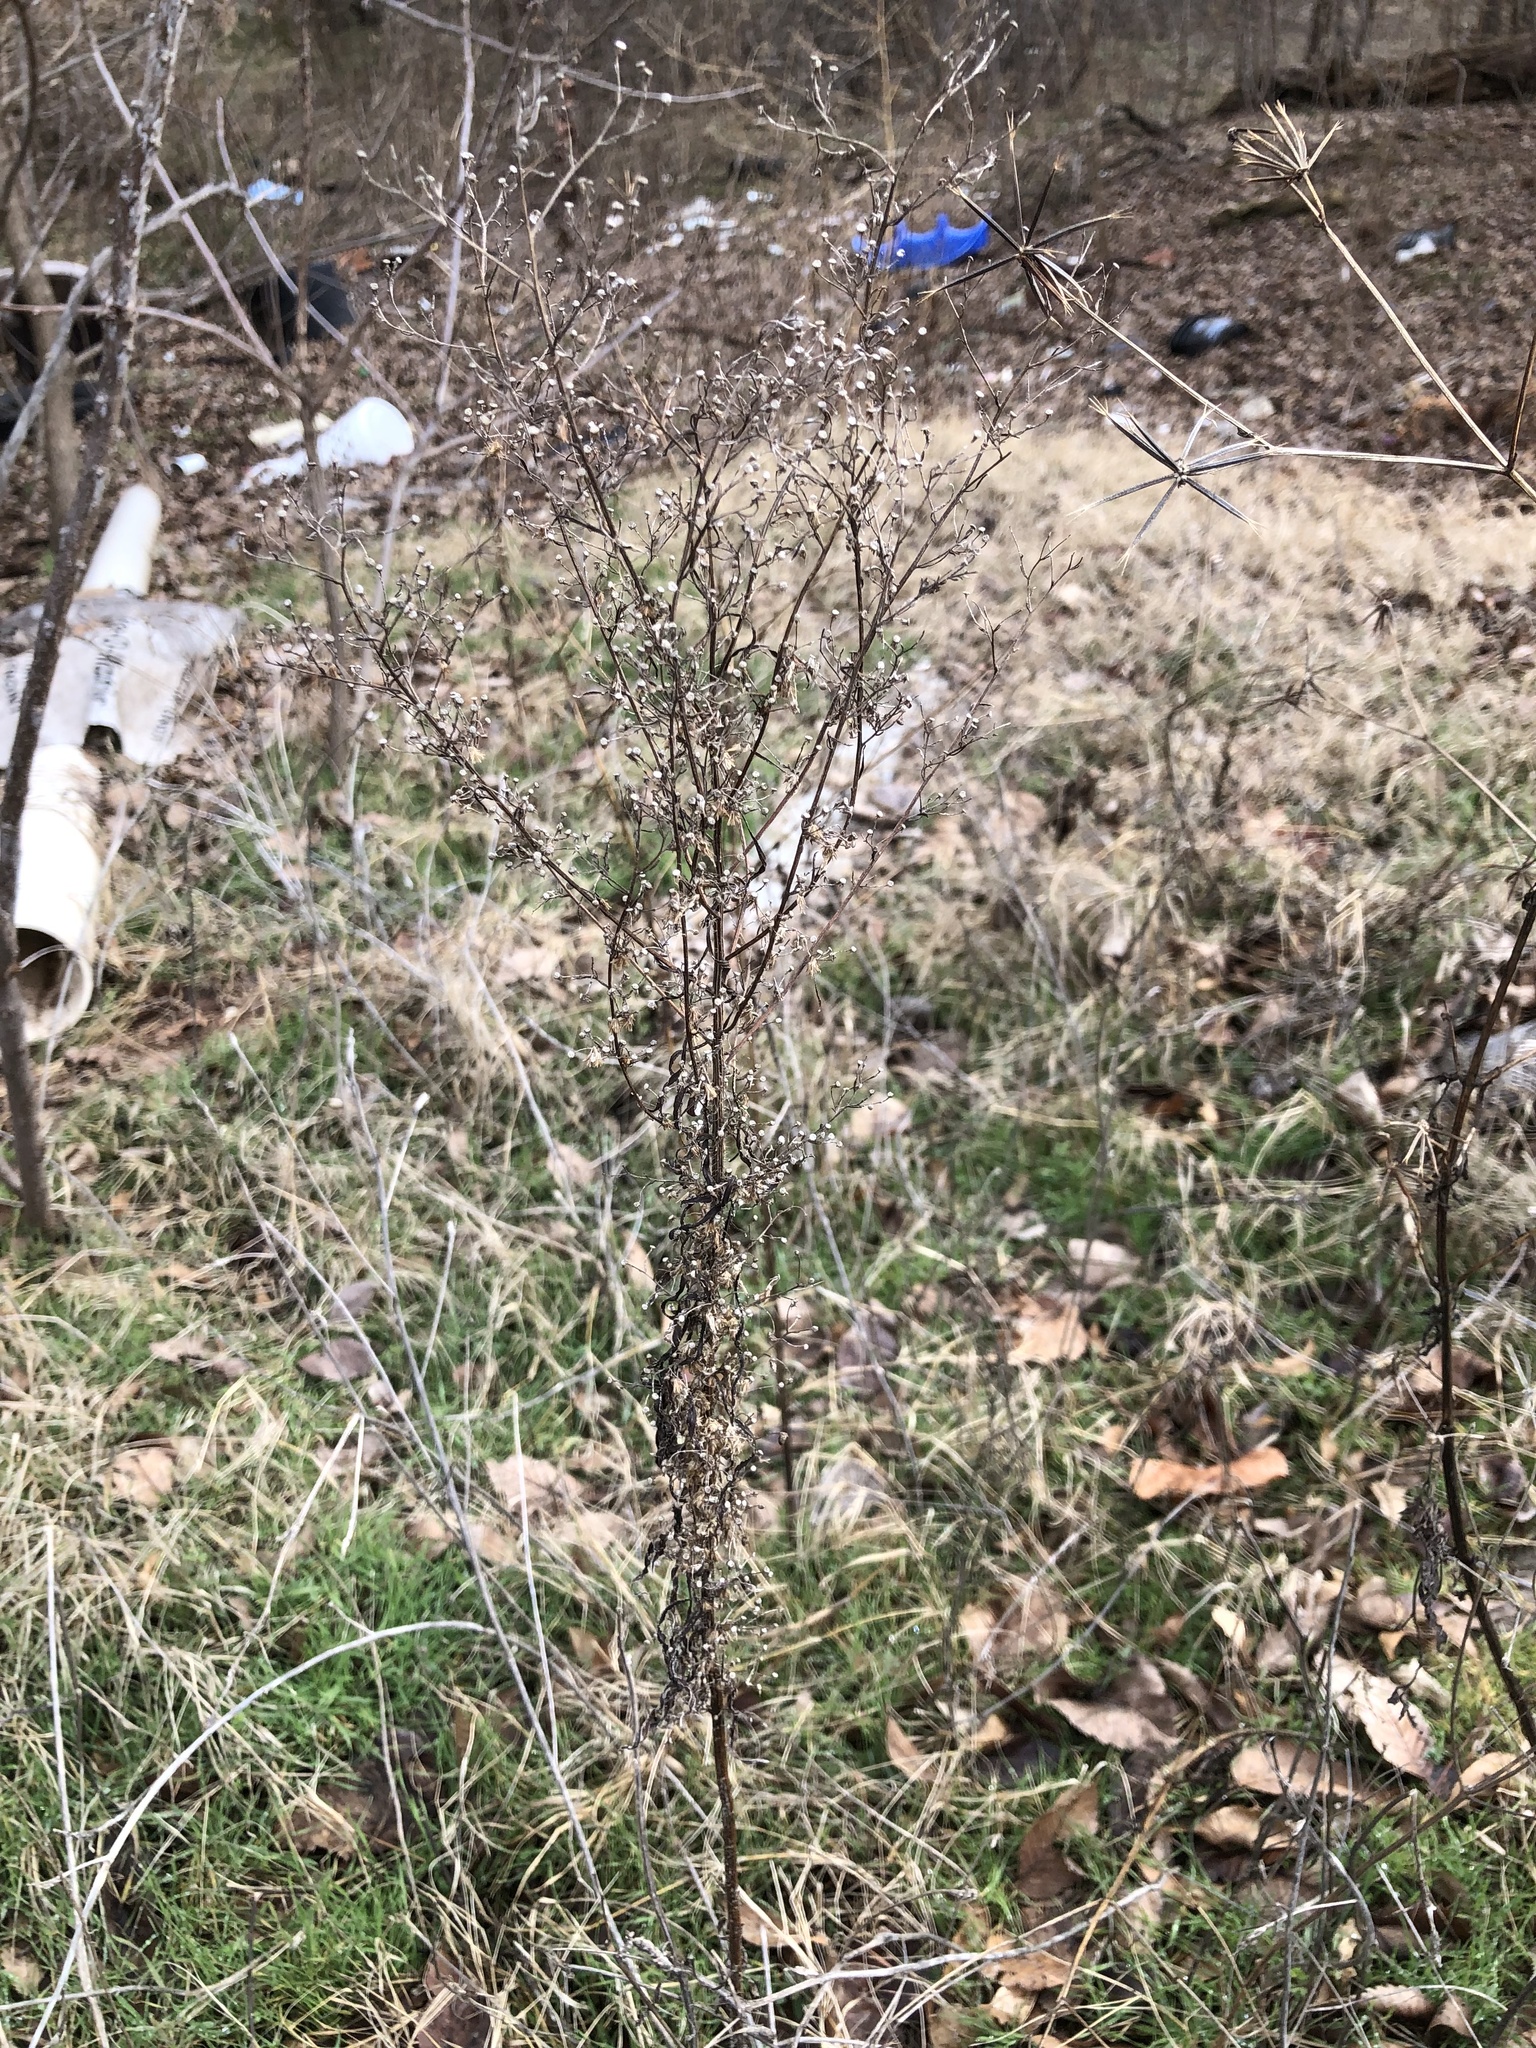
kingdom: Plantae
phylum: Tracheophyta
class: Magnoliopsida
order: Asterales
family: Asteraceae
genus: Erigeron
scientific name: Erigeron canadensis
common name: Canadian fleabane
